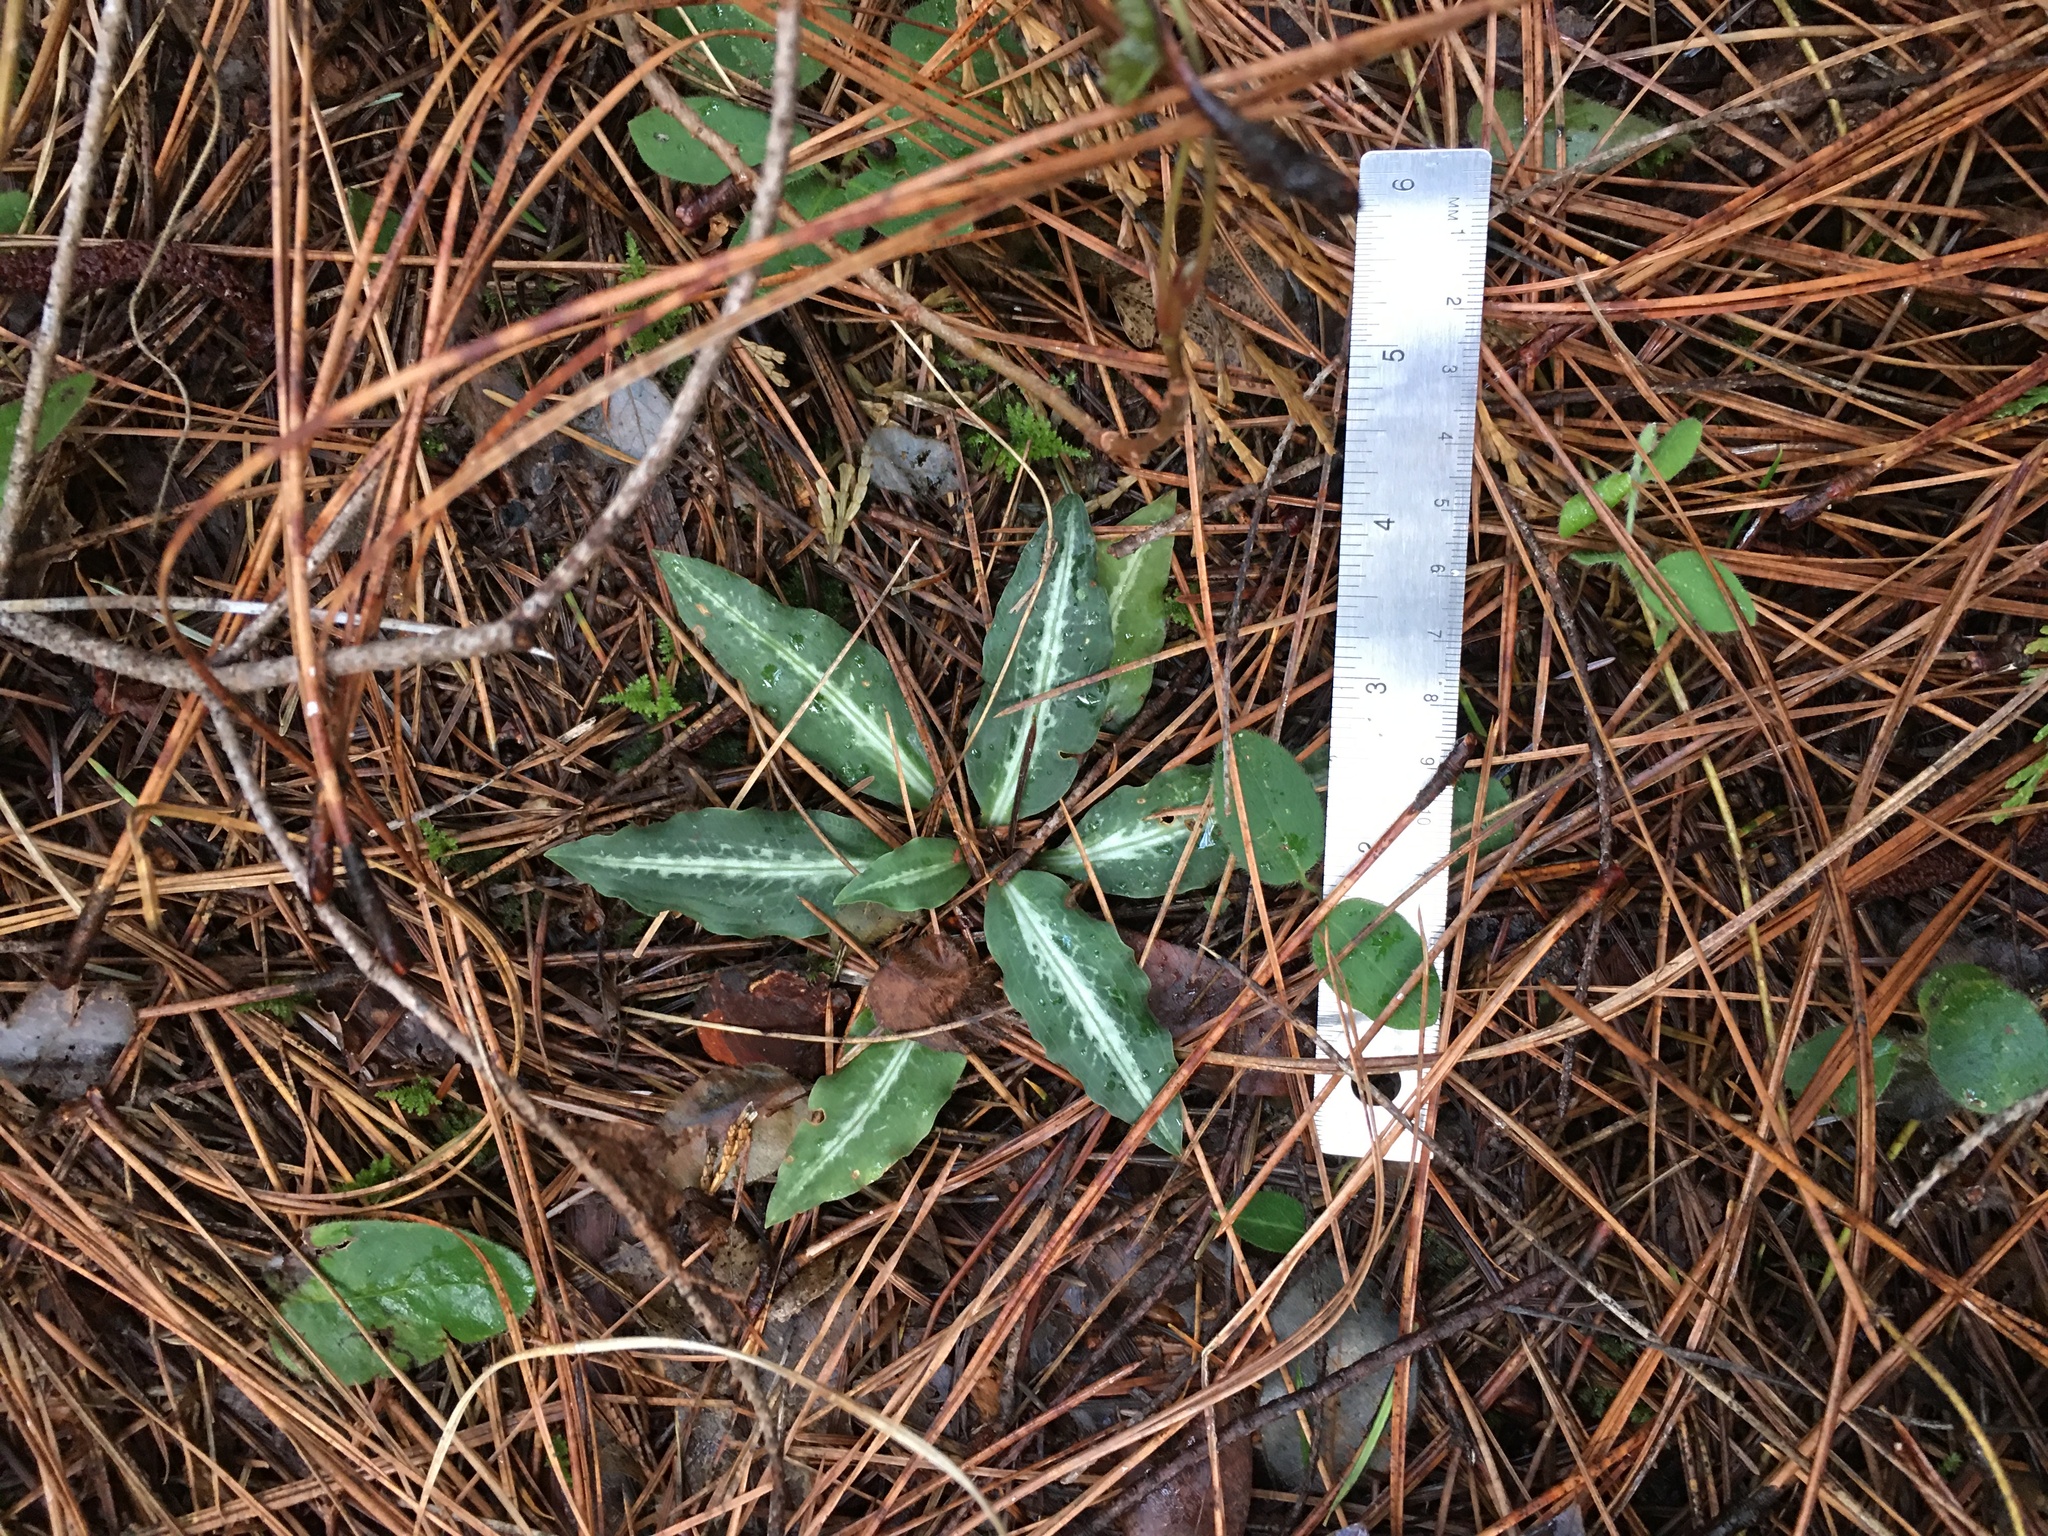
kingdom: Plantae
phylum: Tracheophyta
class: Liliopsida
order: Asparagales
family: Orchidaceae
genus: Goodyera
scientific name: Goodyera oblongifolia
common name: Giant rattlesnake-plantain
